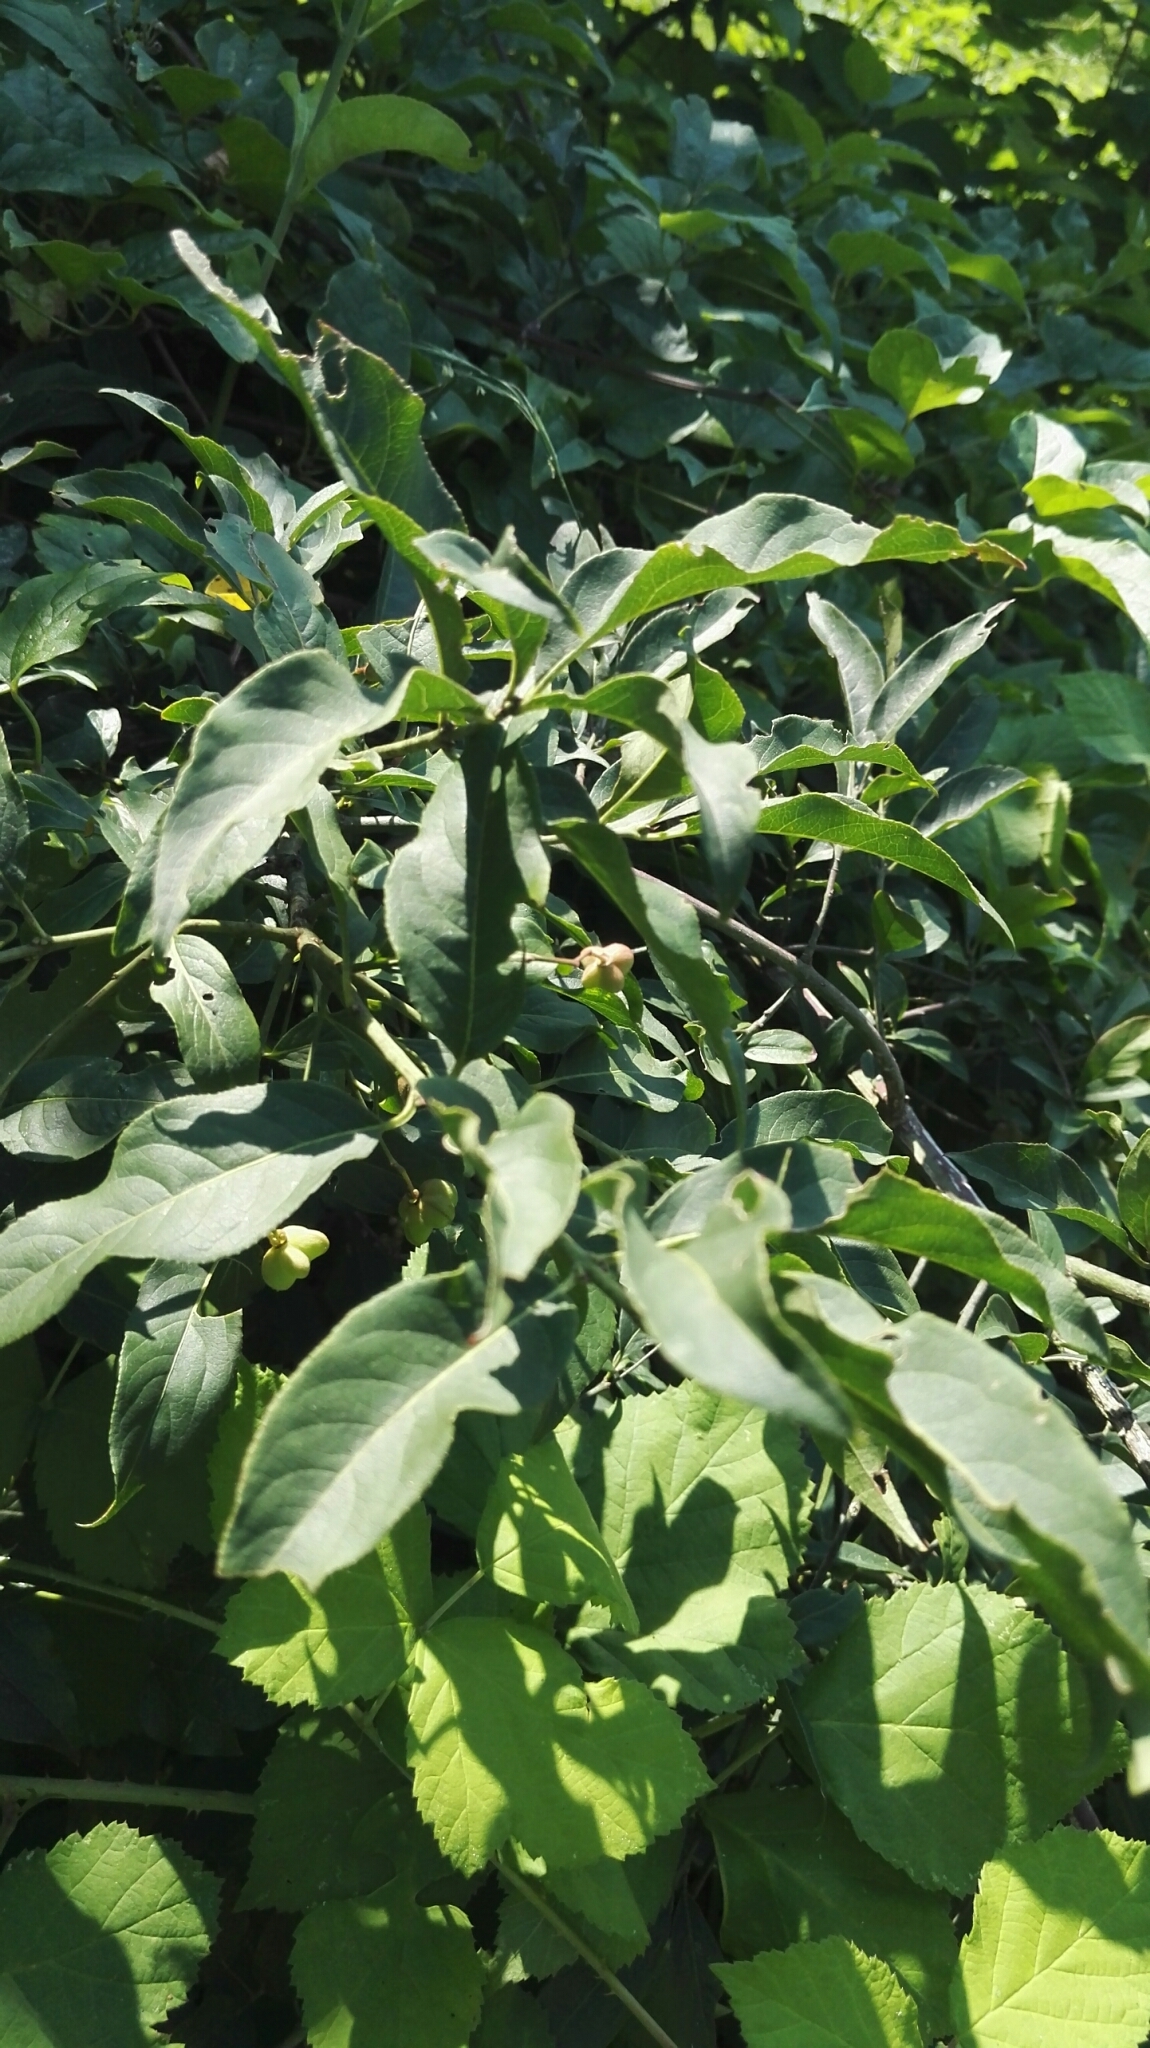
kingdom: Plantae
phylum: Tracheophyta
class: Magnoliopsida
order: Celastrales
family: Celastraceae
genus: Euonymus
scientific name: Euonymus europaeus
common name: Spindle
